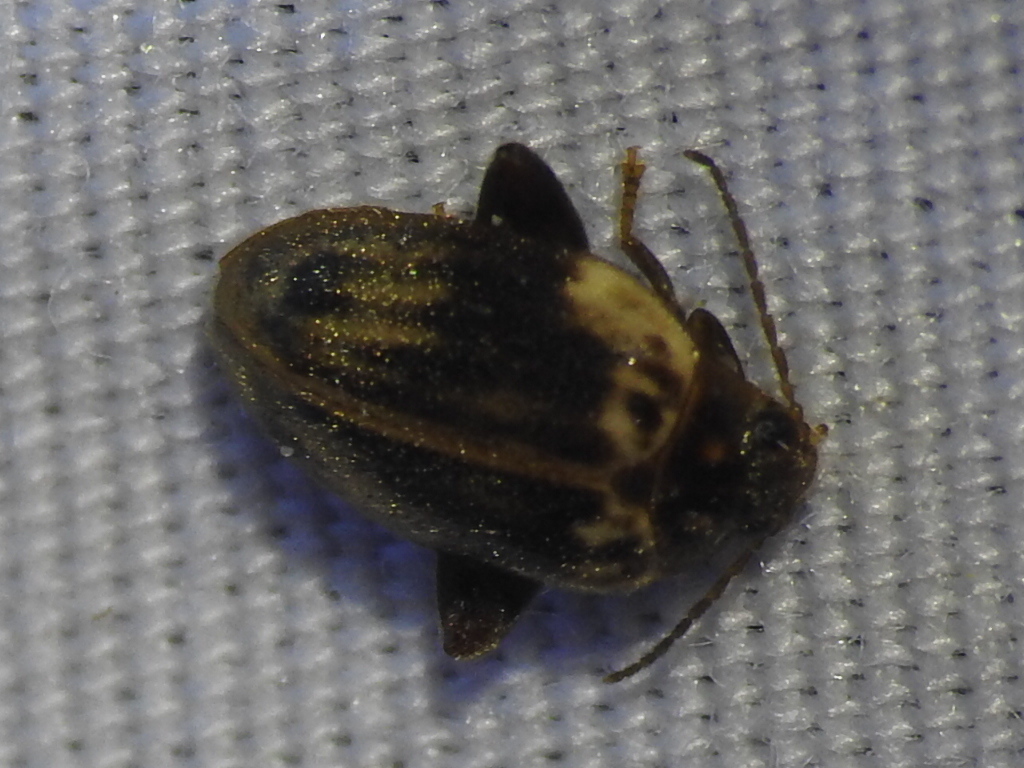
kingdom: Animalia
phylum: Arthropoda
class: Insecta
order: Coleoptera
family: Scirtidae
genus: Ora
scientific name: Ora texana
